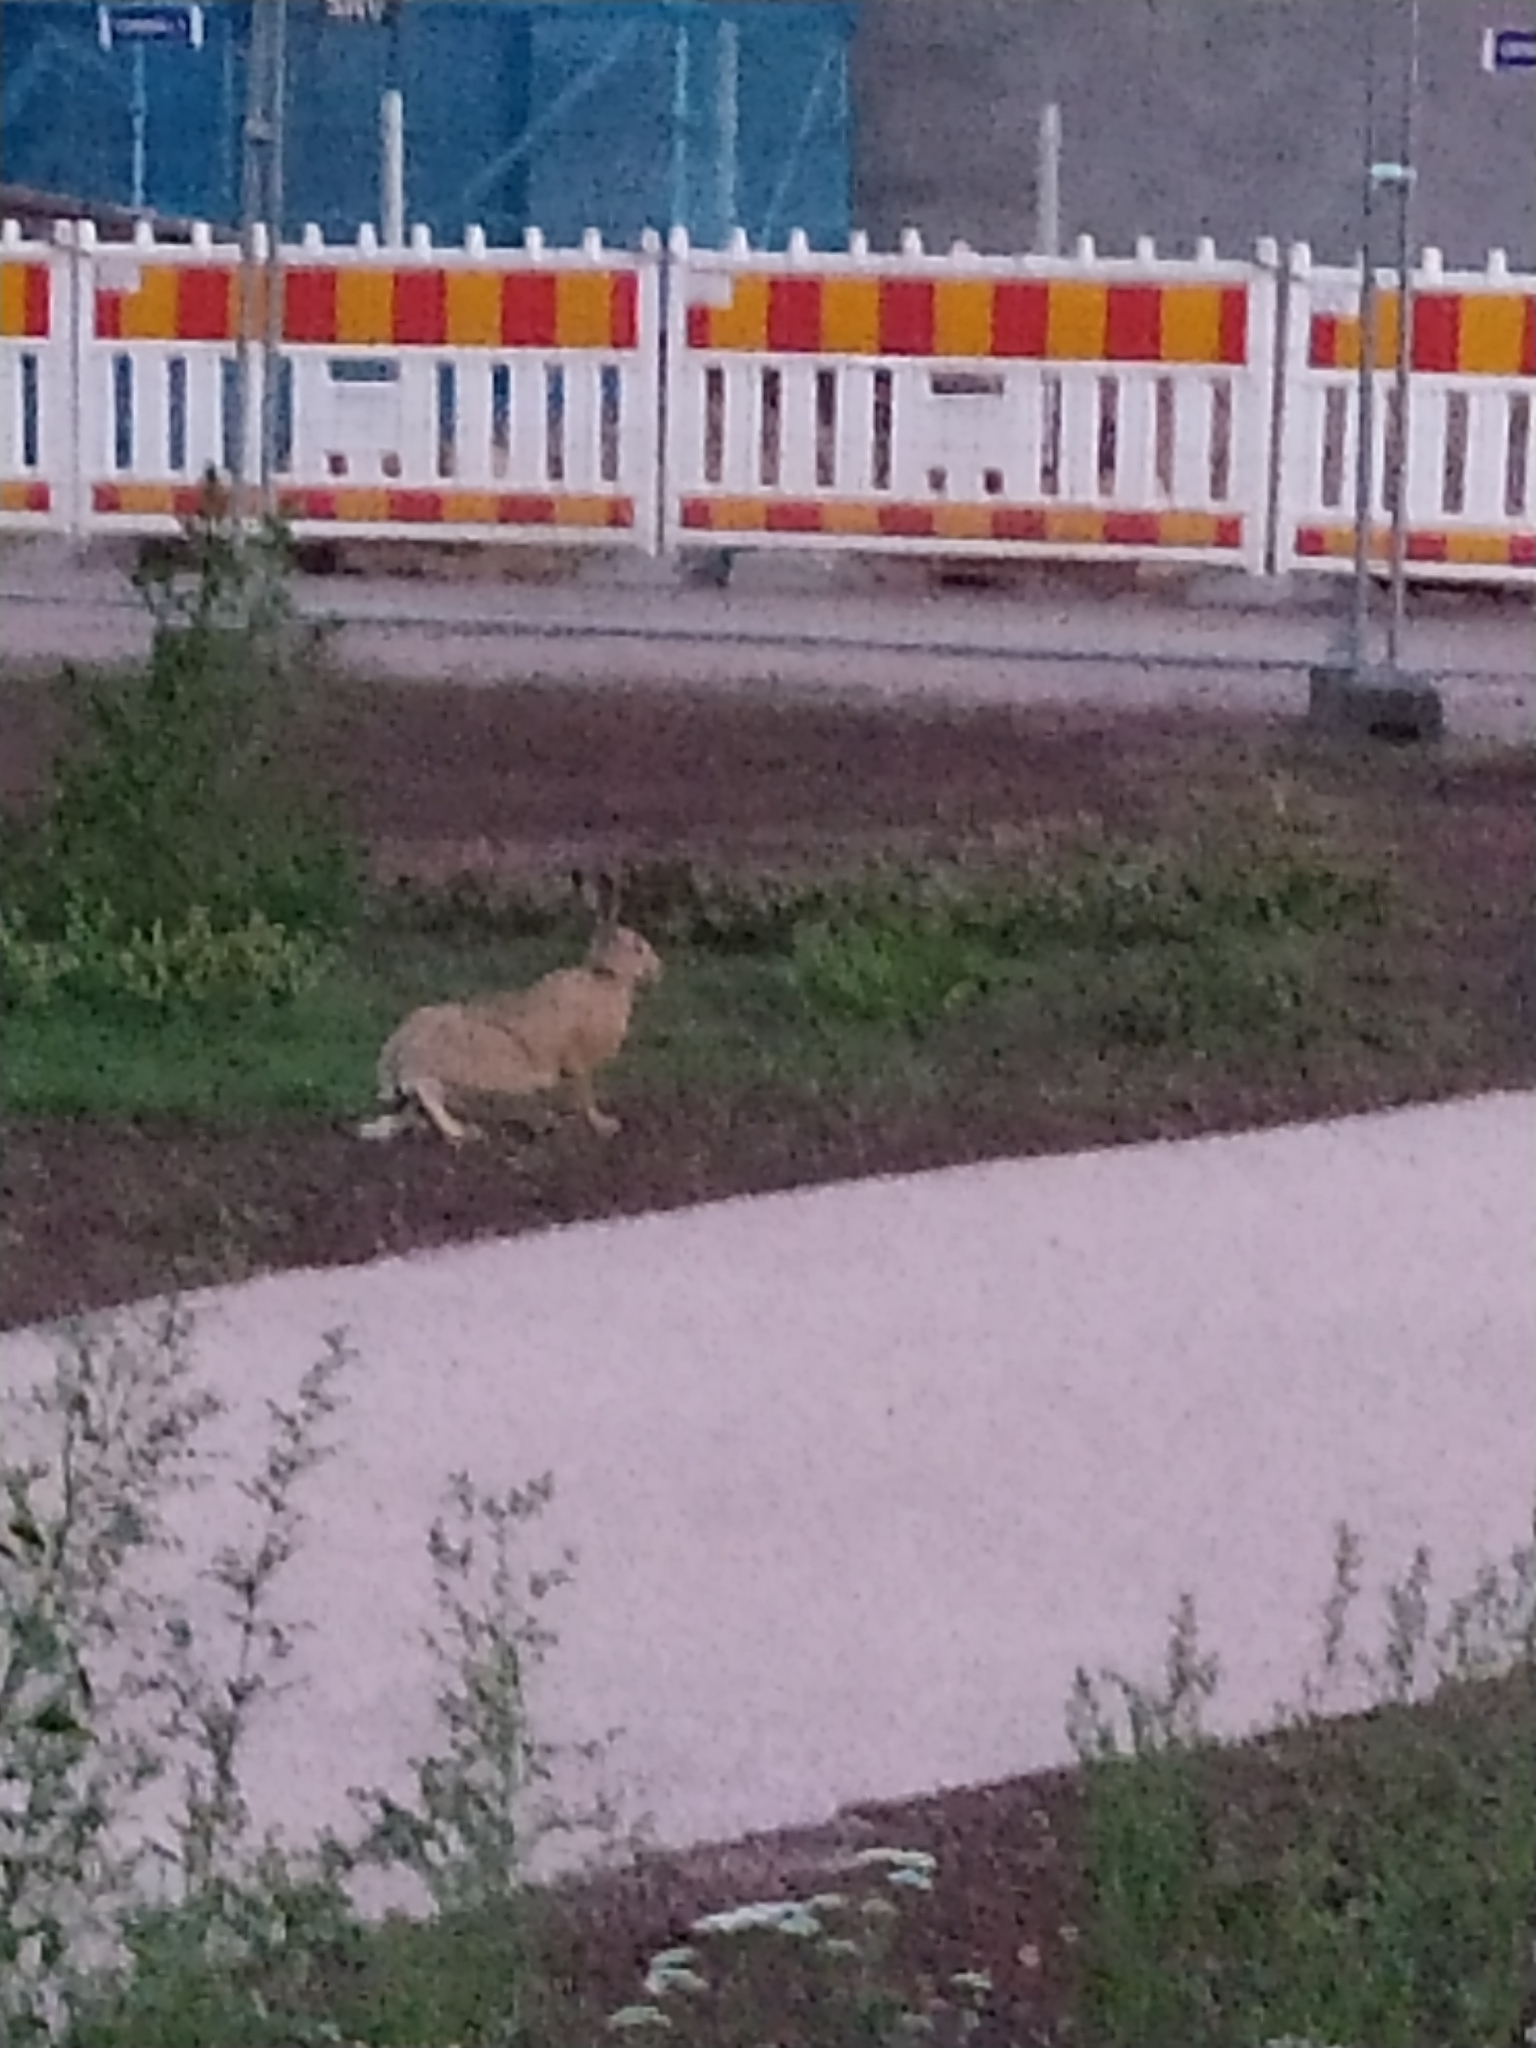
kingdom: Animalia
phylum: Chordata
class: Mammalia
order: Lagomorpha
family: Leporidae
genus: Lepus
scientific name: Lepus europaeus
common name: European hare
